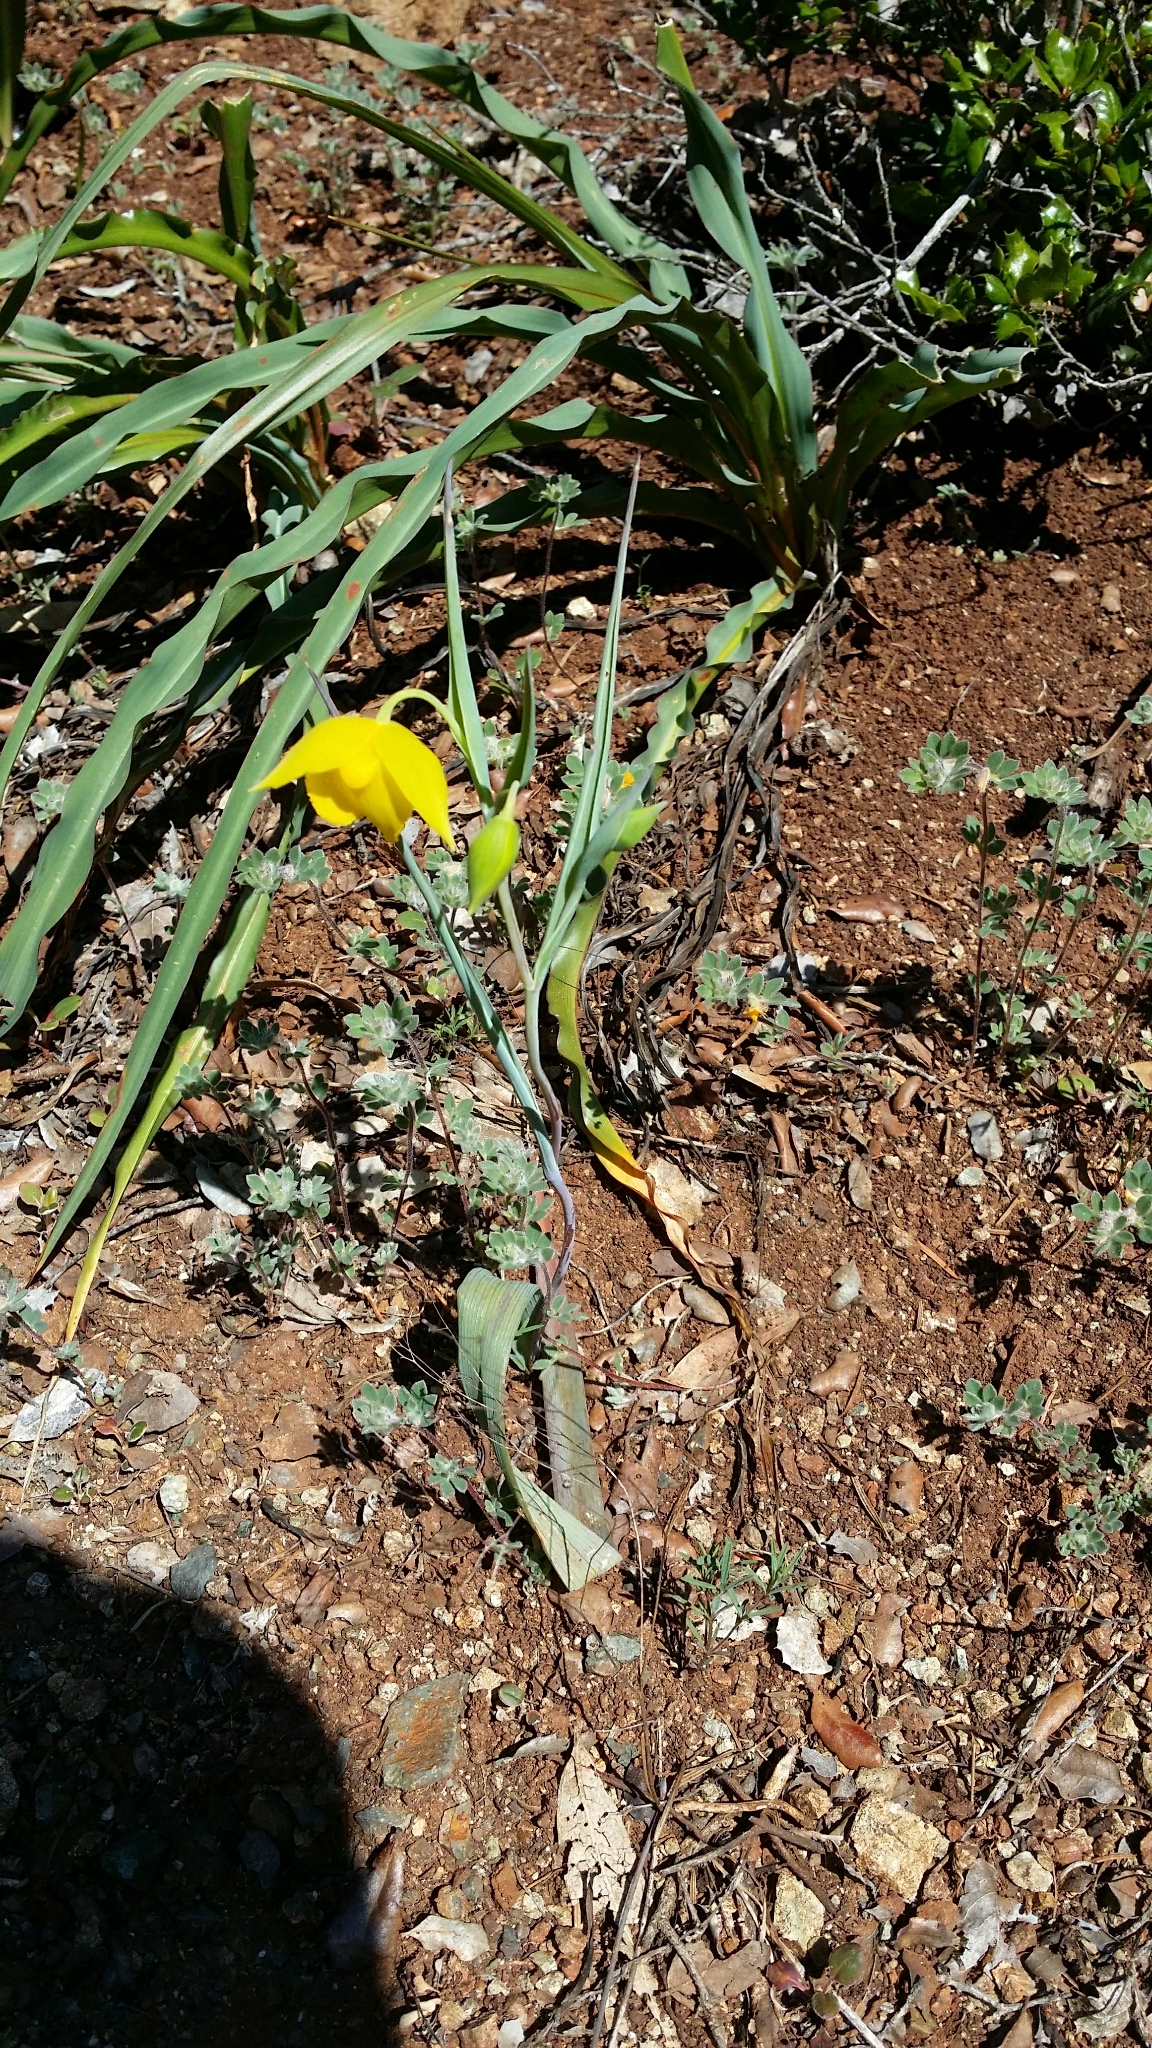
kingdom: Plantae
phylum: Tracheophyta
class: Liliopsida
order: Liliales
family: Liliaceae
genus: Calochortus
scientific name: Calochortus amabilis
